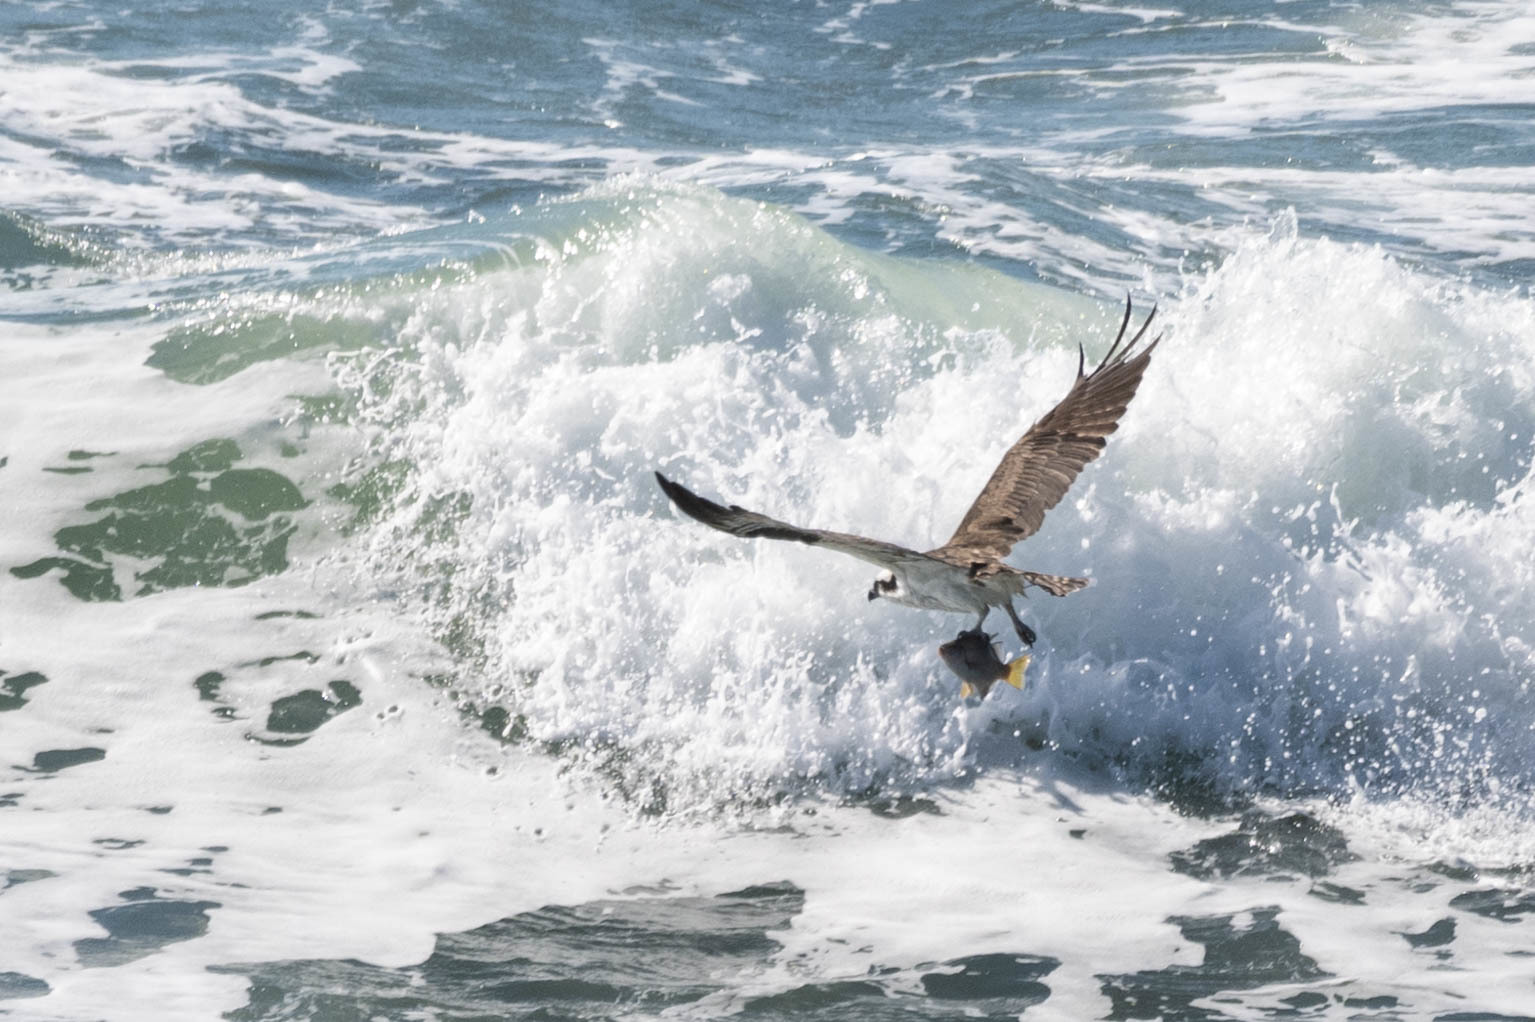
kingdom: Animalia
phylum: Chordata
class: Aves
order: Accipitriformes
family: Pandionidae
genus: Pandion
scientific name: Pandion haliaetus
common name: Osprey
